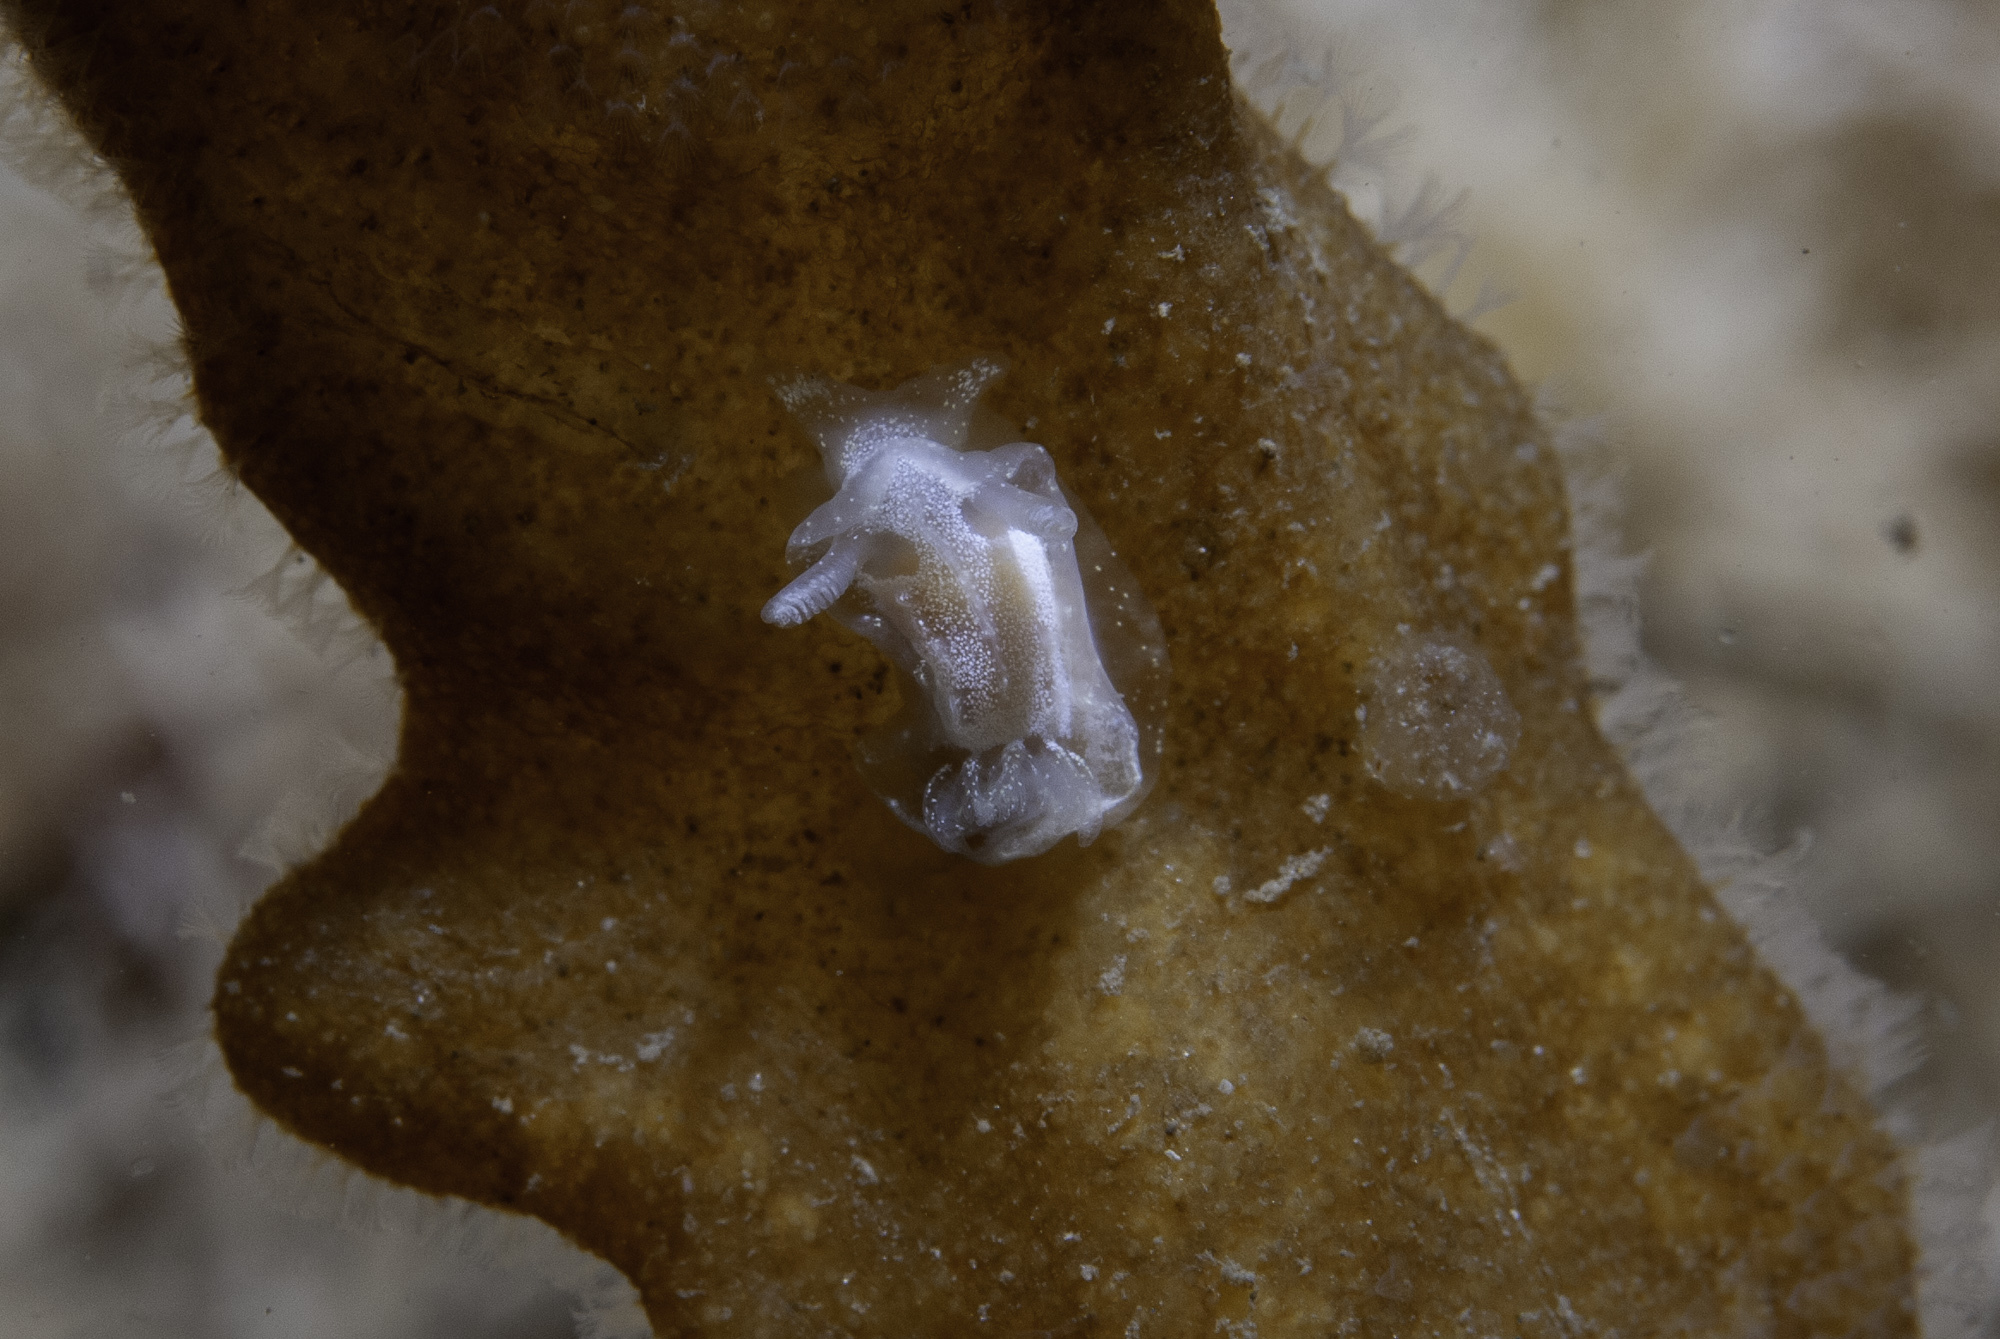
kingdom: Animalia
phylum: Mollusca
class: Gastropoda
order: Nudibranchia
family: Goniodorididae
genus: Okenia
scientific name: Okenia
